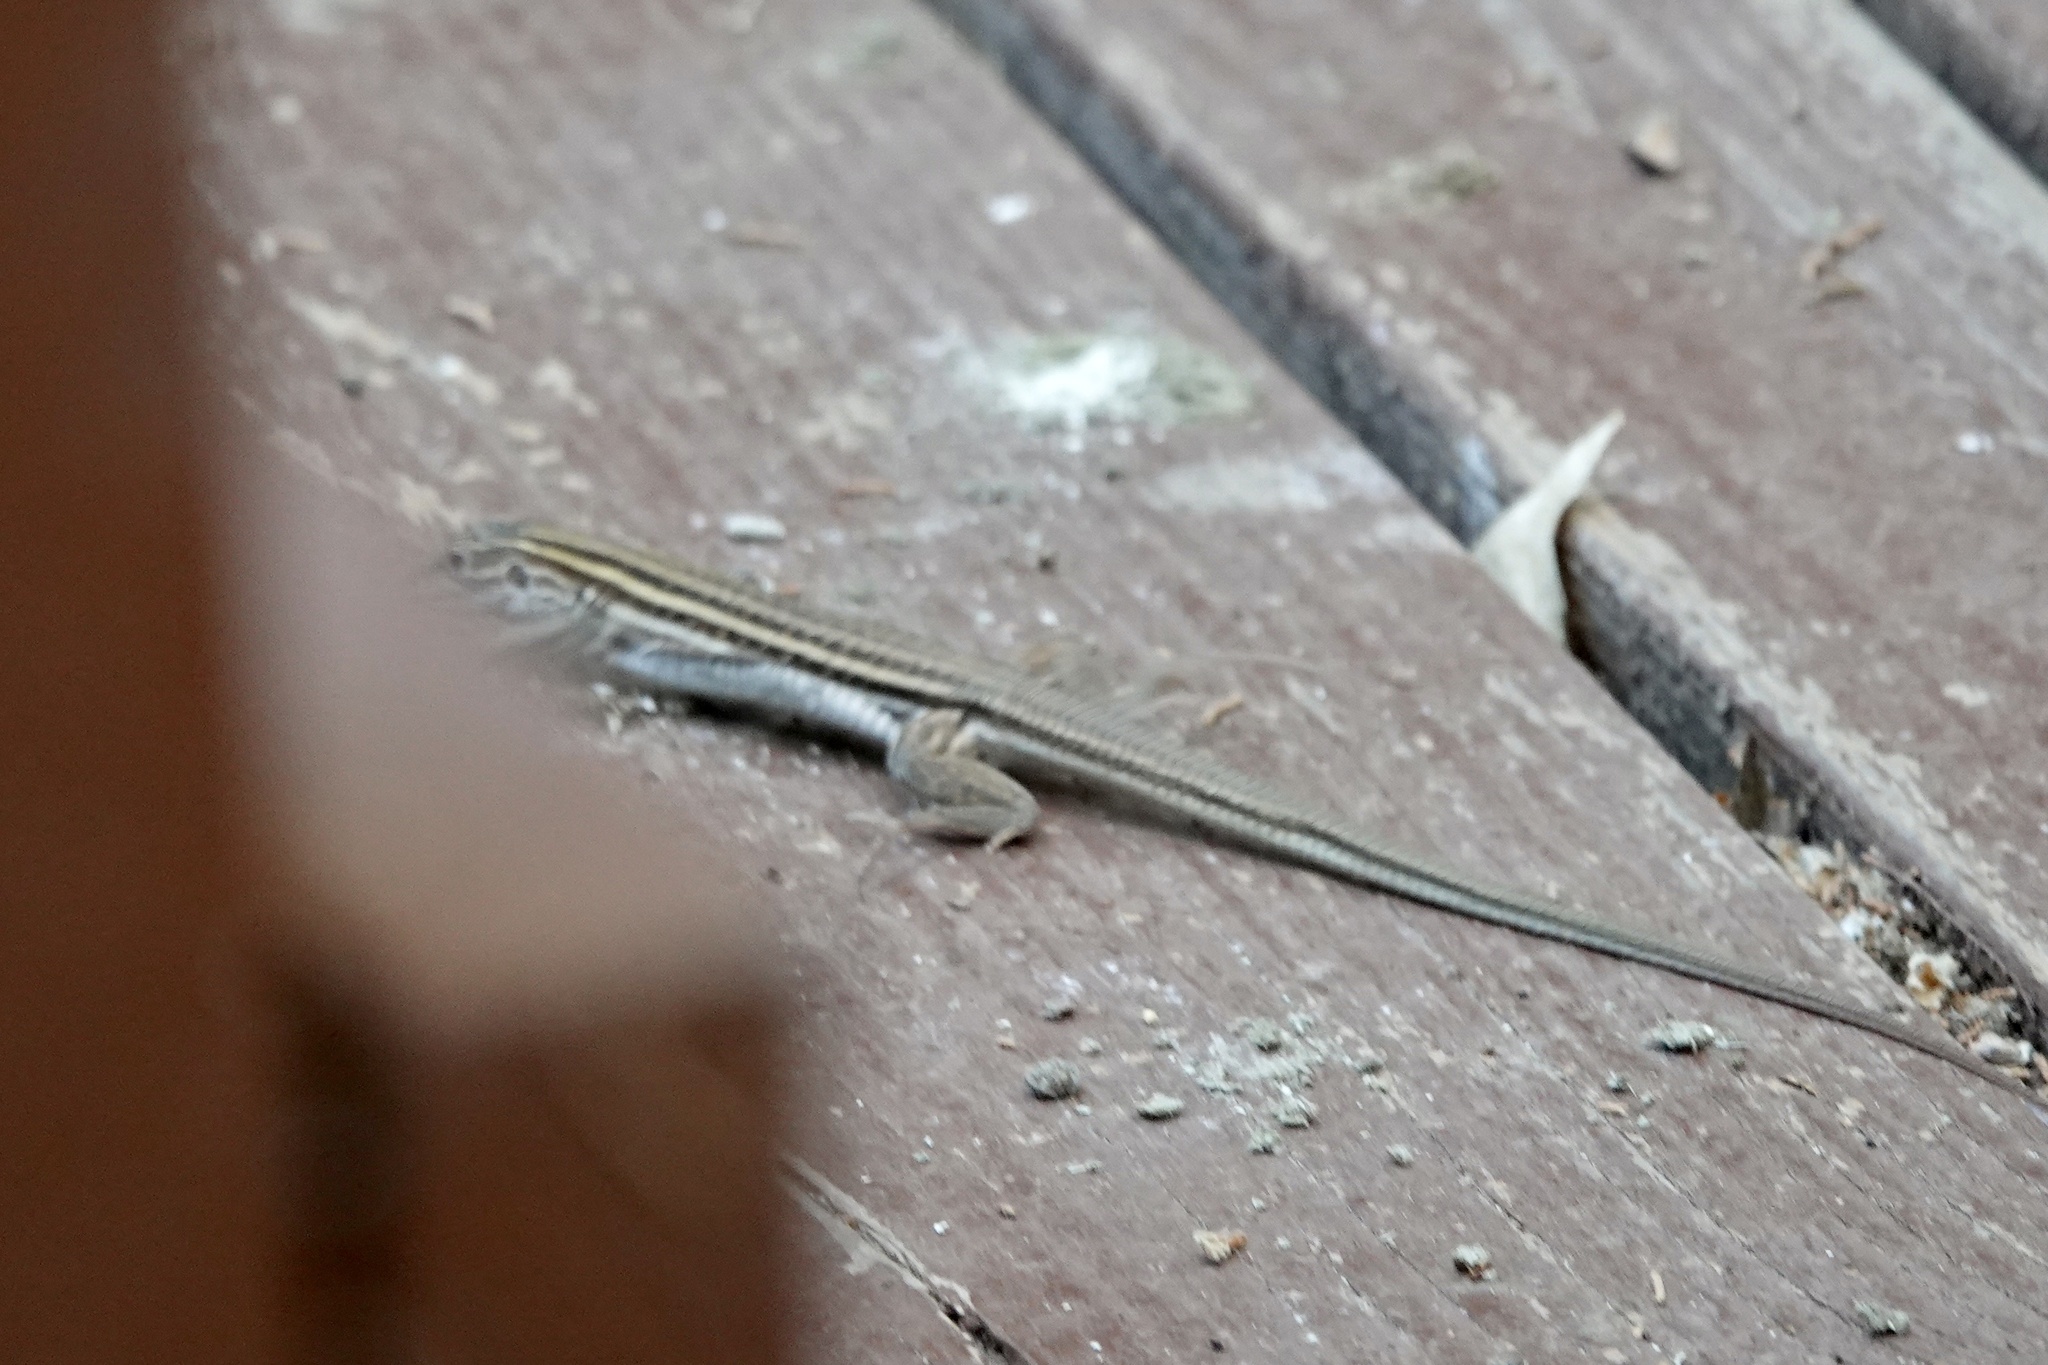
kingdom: Animalia
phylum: Chordata
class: Squamata
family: Teiidae
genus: Aspidoscelis
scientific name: Aspidoscelis sonorae
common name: Sonoran spotted whiptail
